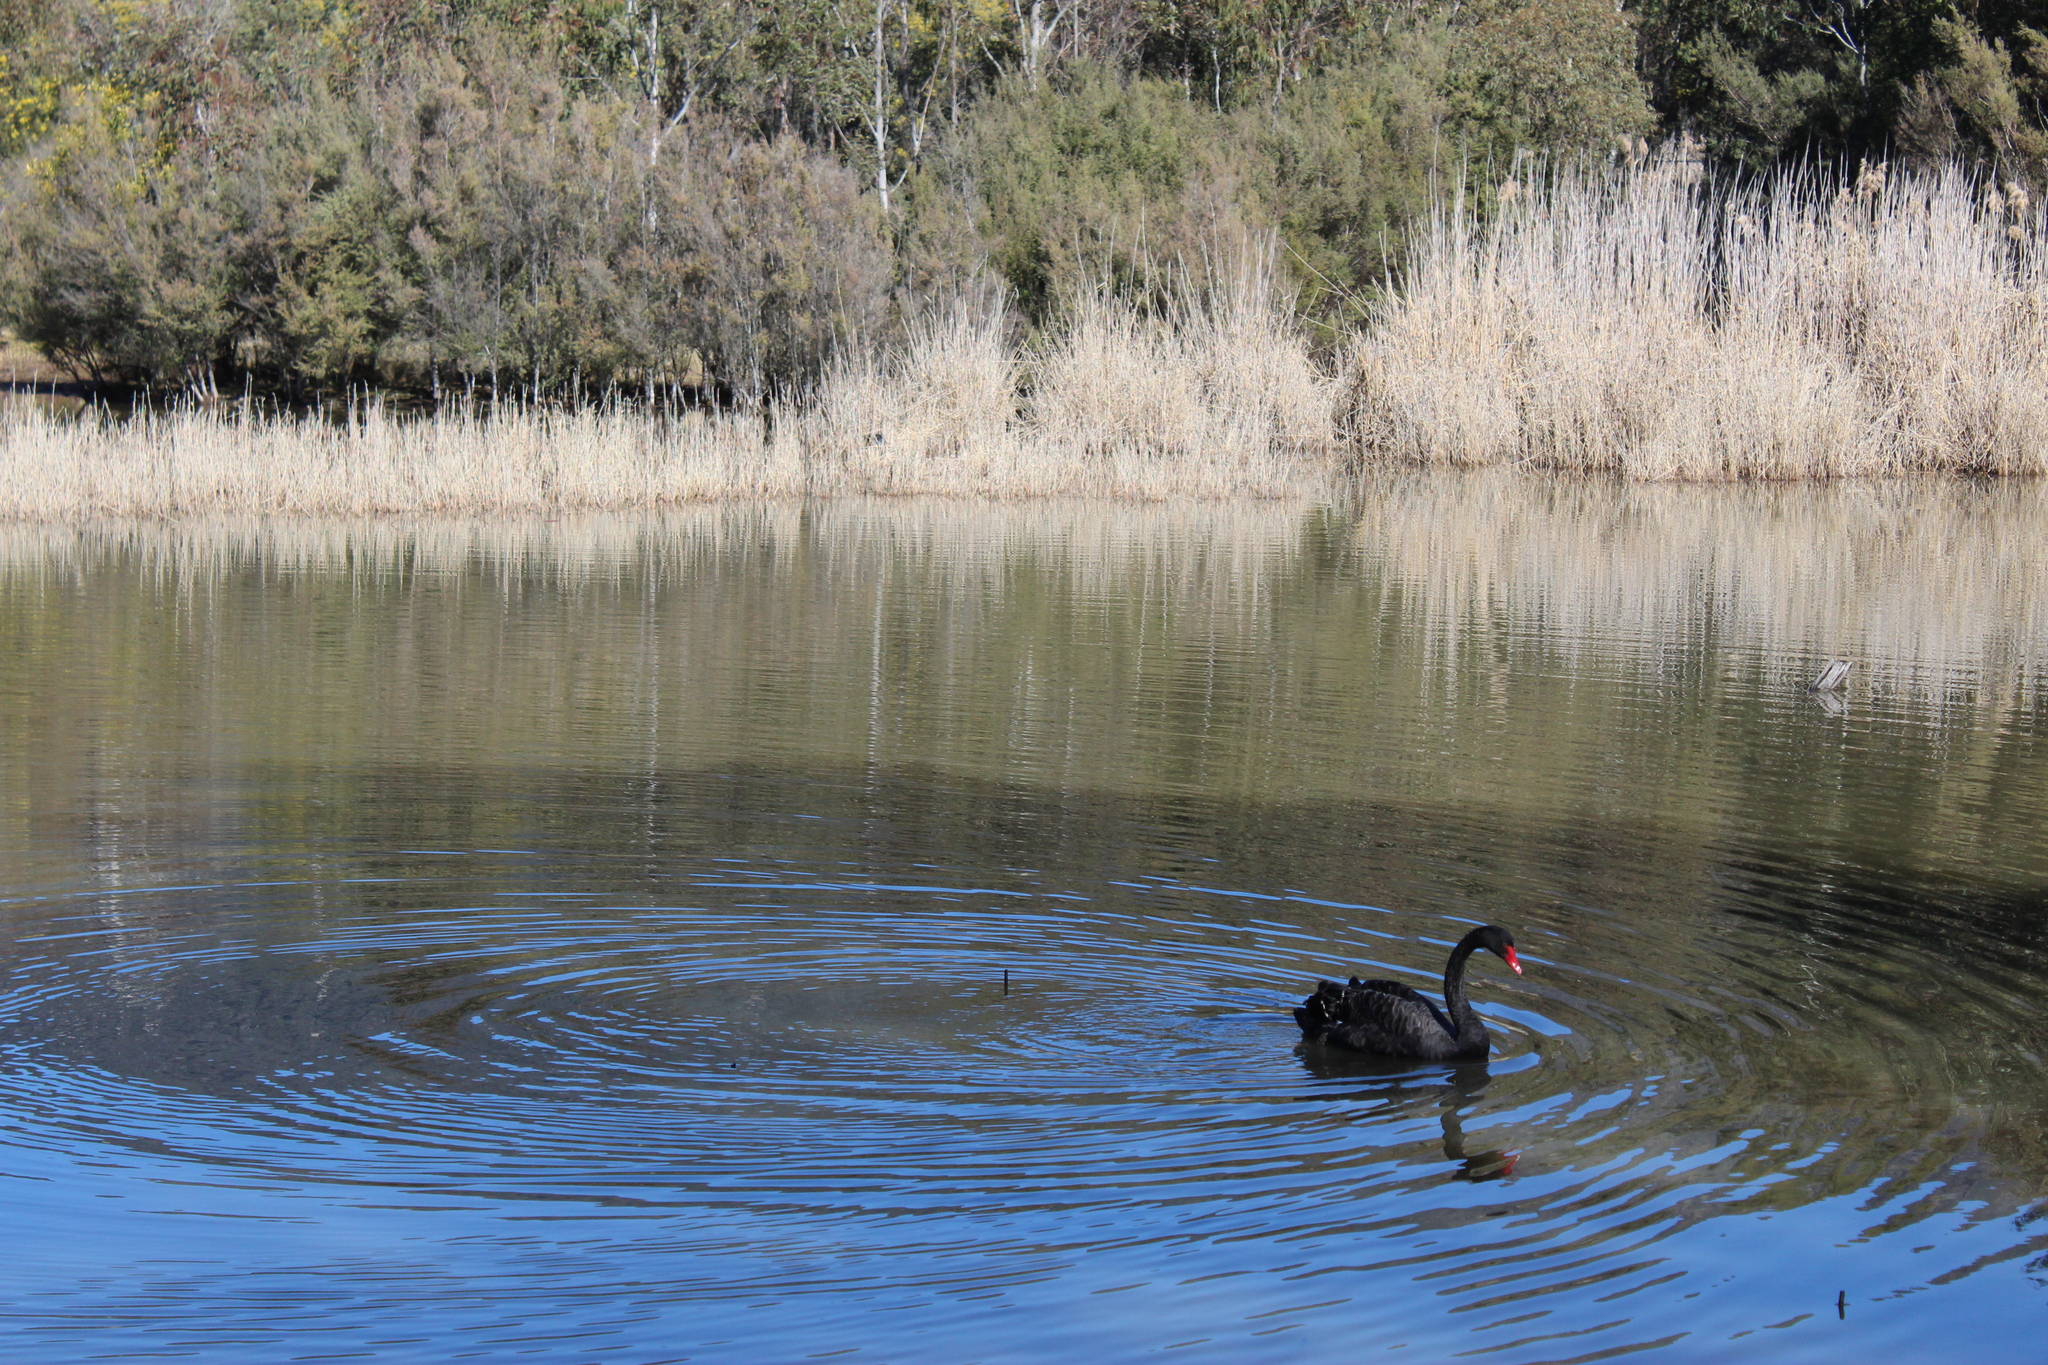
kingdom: Animalia
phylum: Chordata
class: Aves
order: Anseriformes
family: Anatidae
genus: Cygnus
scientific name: Cygnus atratus
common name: Black swan
